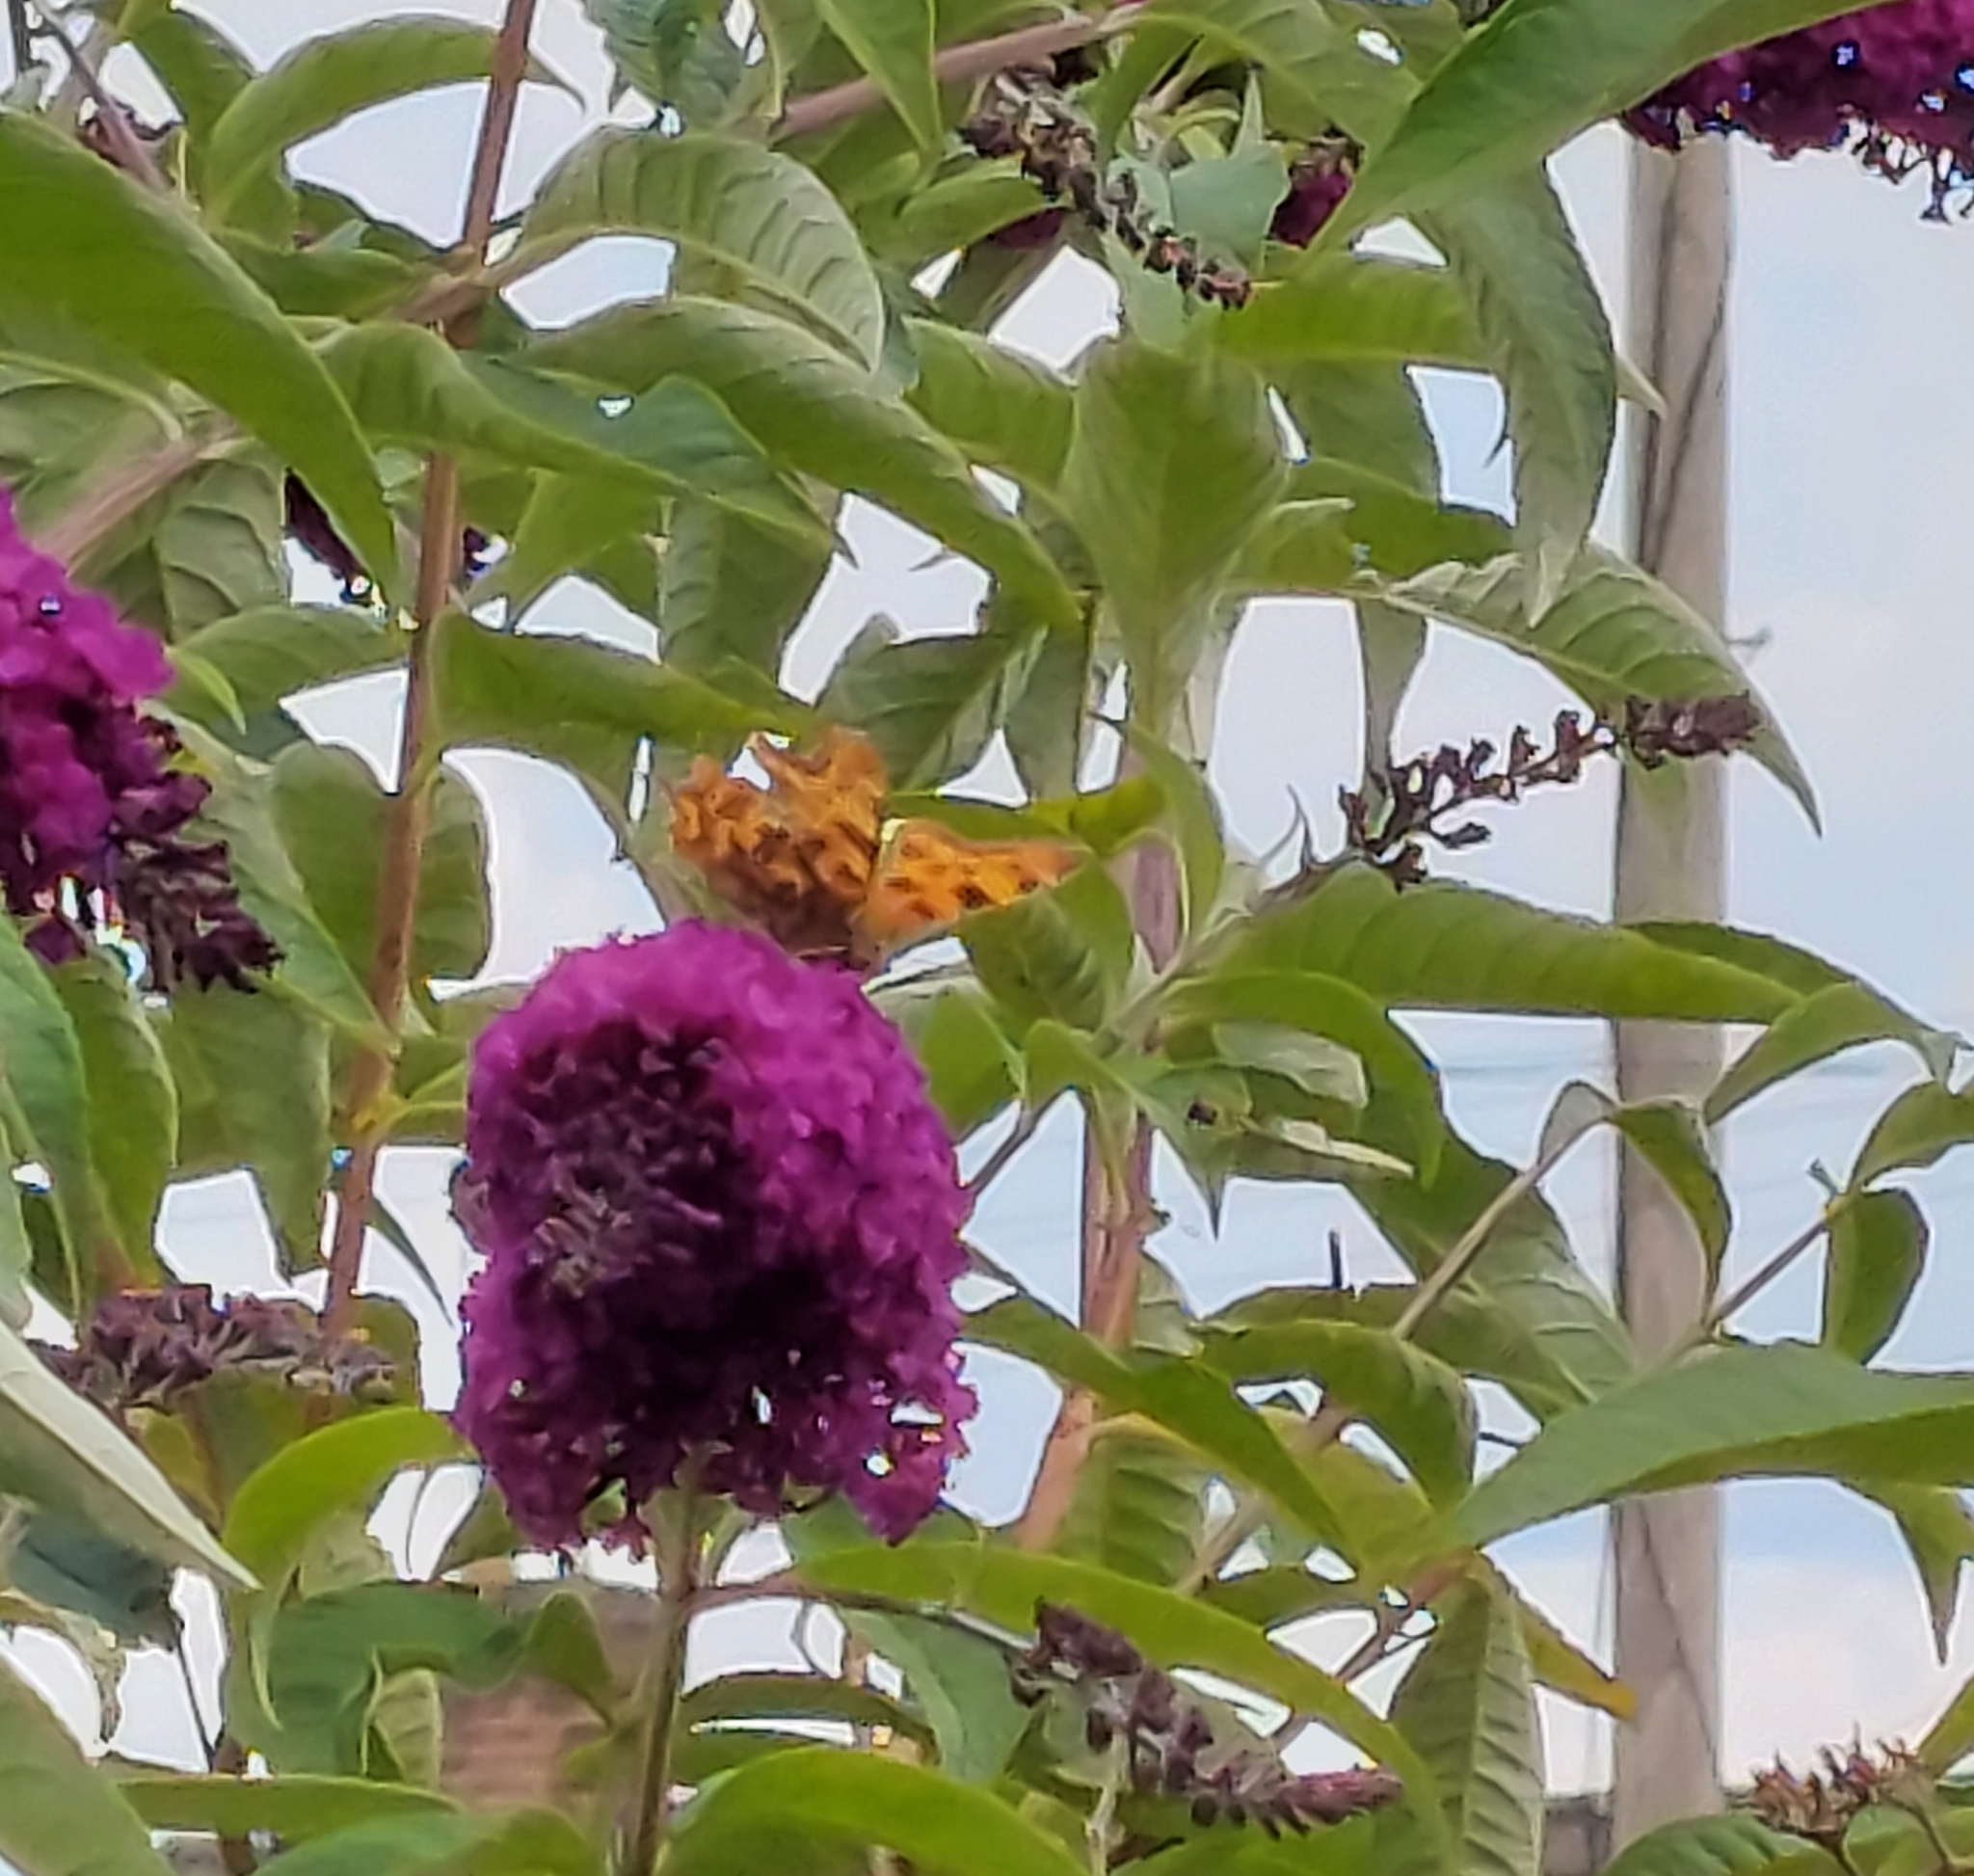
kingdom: Animalia
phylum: Arthropoda
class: Insecta
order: Lepidoptera
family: Nymphalidae
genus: Polygonia
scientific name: Polygonia c-album
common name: Comma
